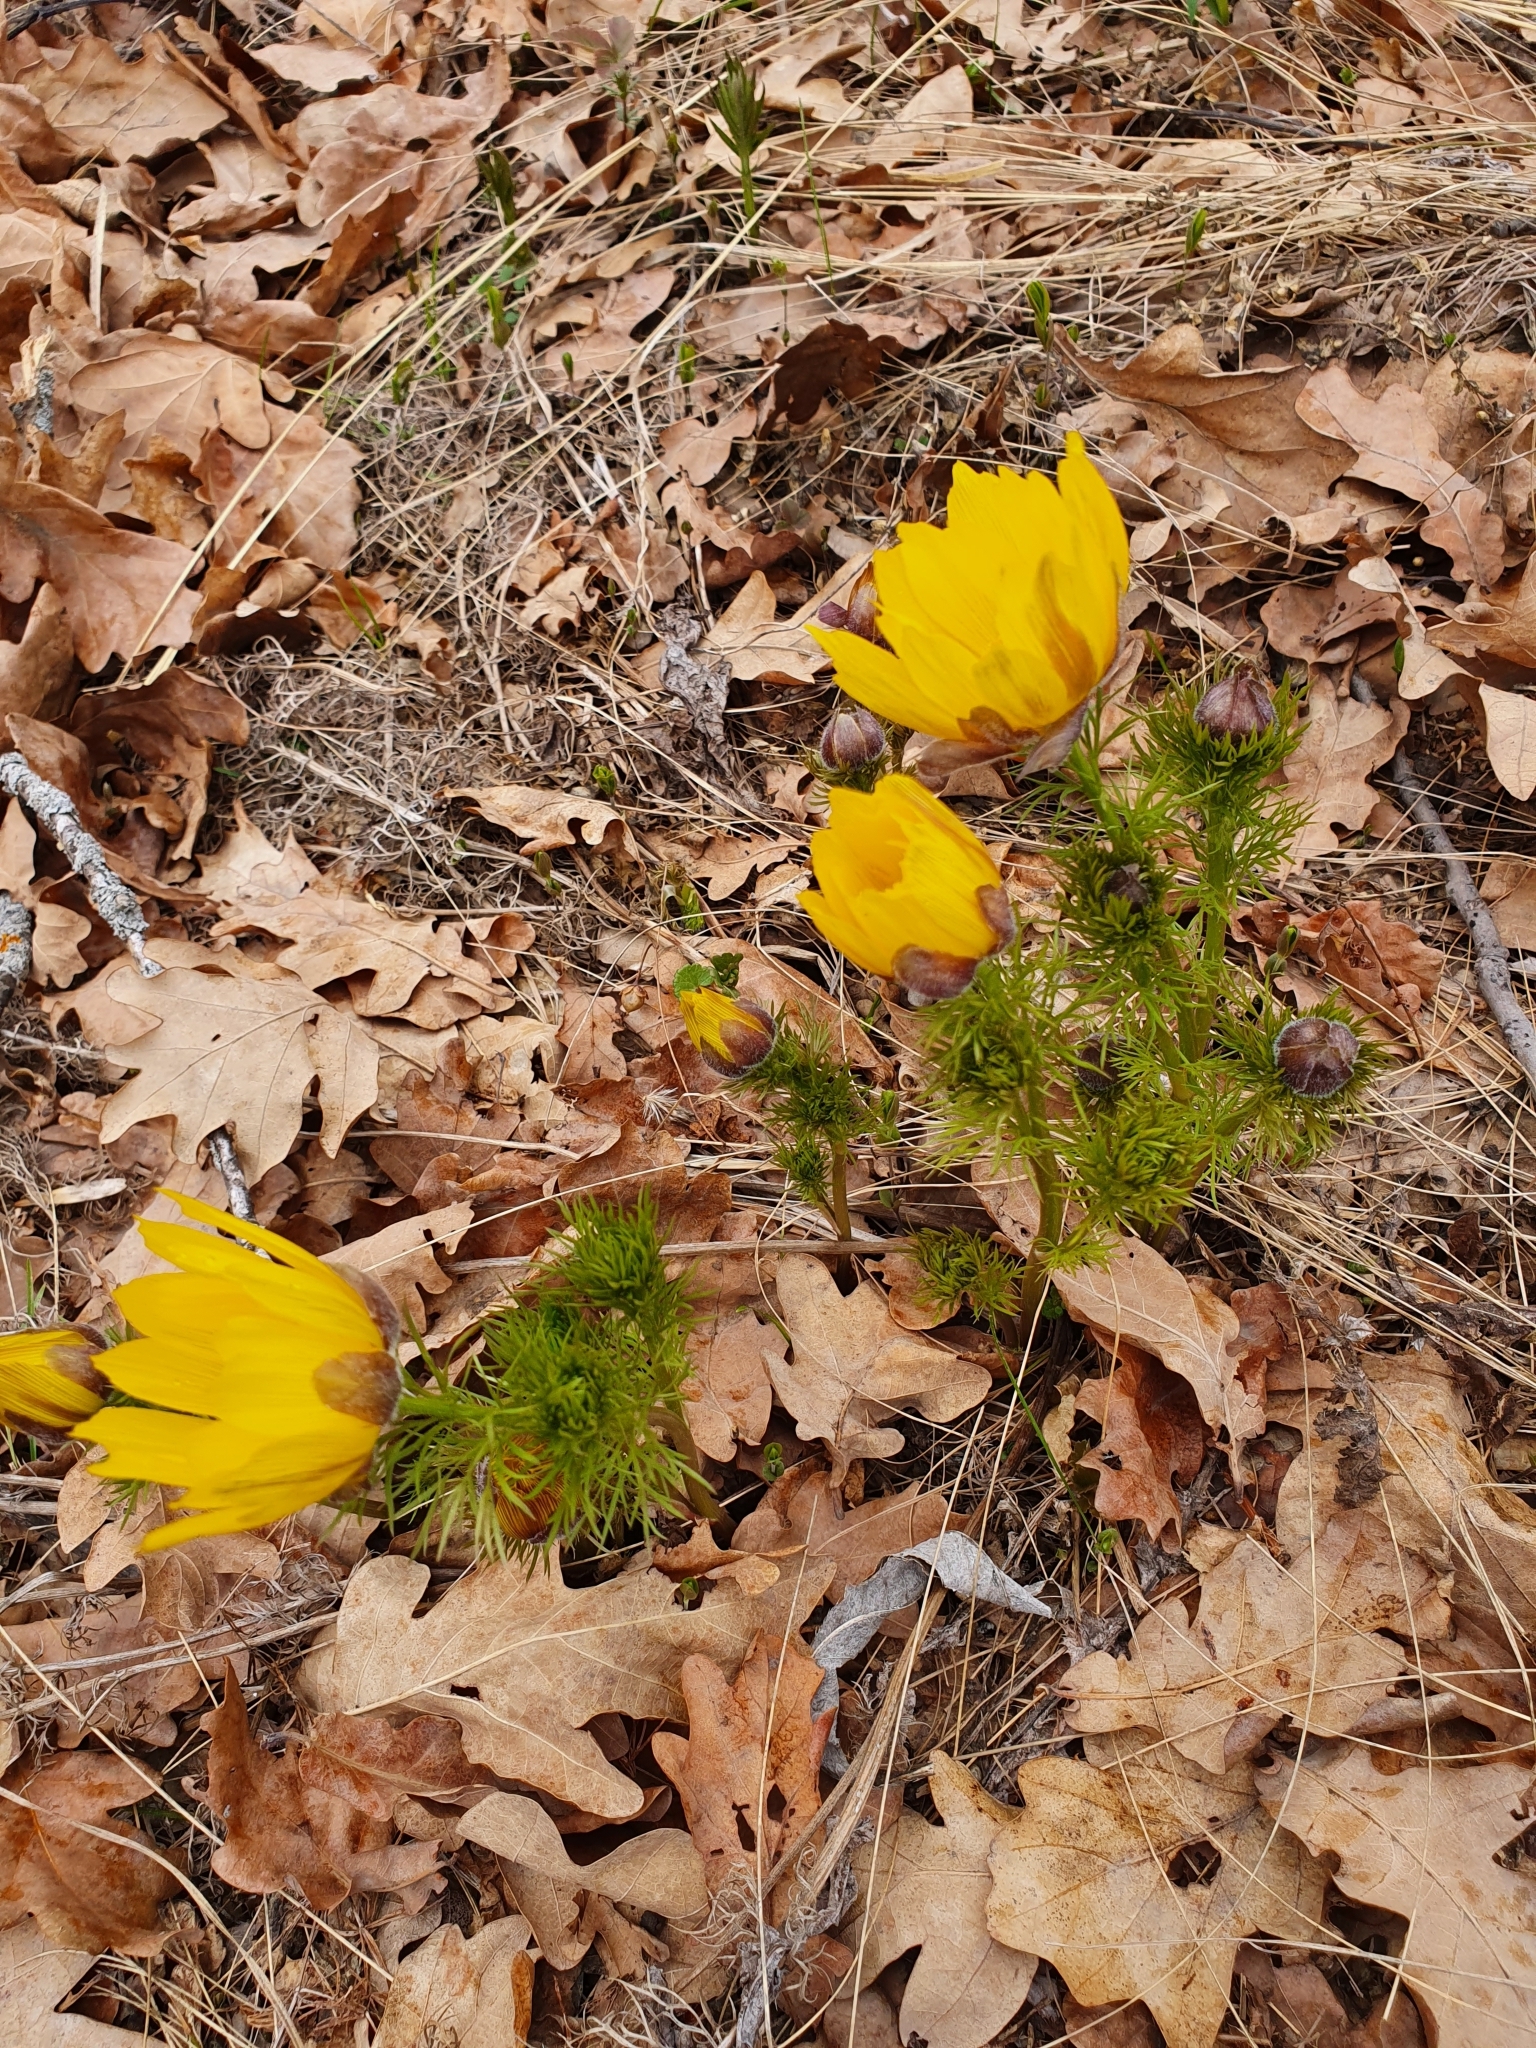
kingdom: Plantae
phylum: Tracheophyta
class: Magnoliopsida
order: Ranunculales
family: Ranunculaceae
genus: Adonis
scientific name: Adonis vernalis
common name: Yellow pheasants-eye
